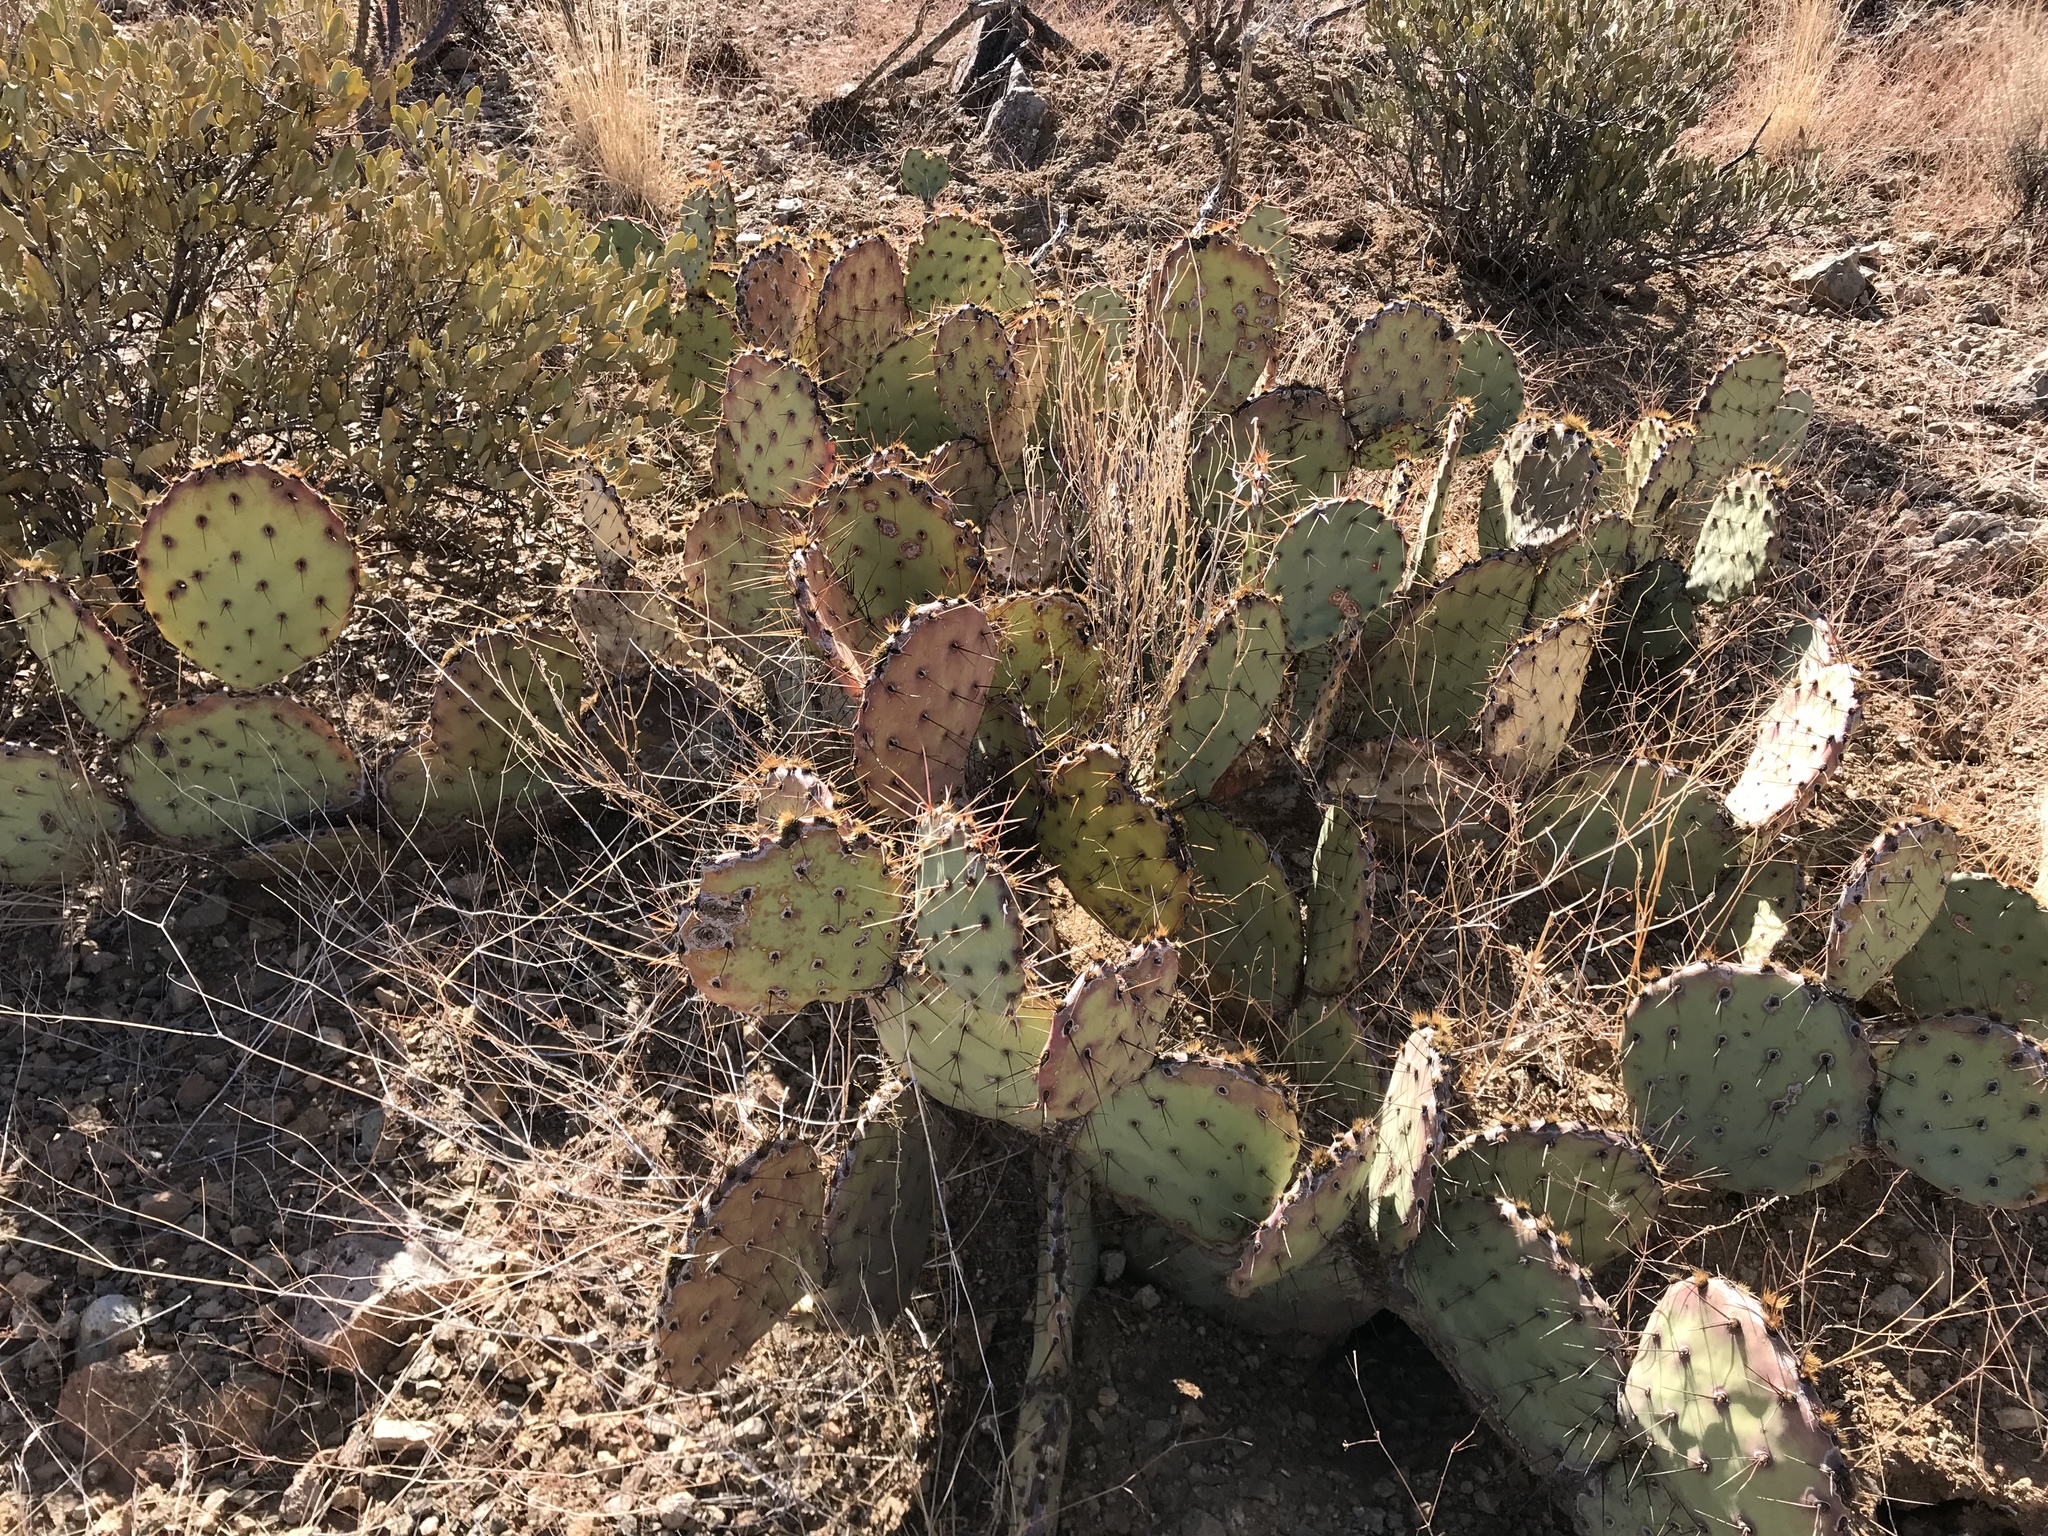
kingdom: Plantae
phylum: Tracheophyta
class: Magnoliopsida
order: Caryophyllales
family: Cactaceae
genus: Opuntia
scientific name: Opuntia phaeacantha
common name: New mexico prickly-pear
